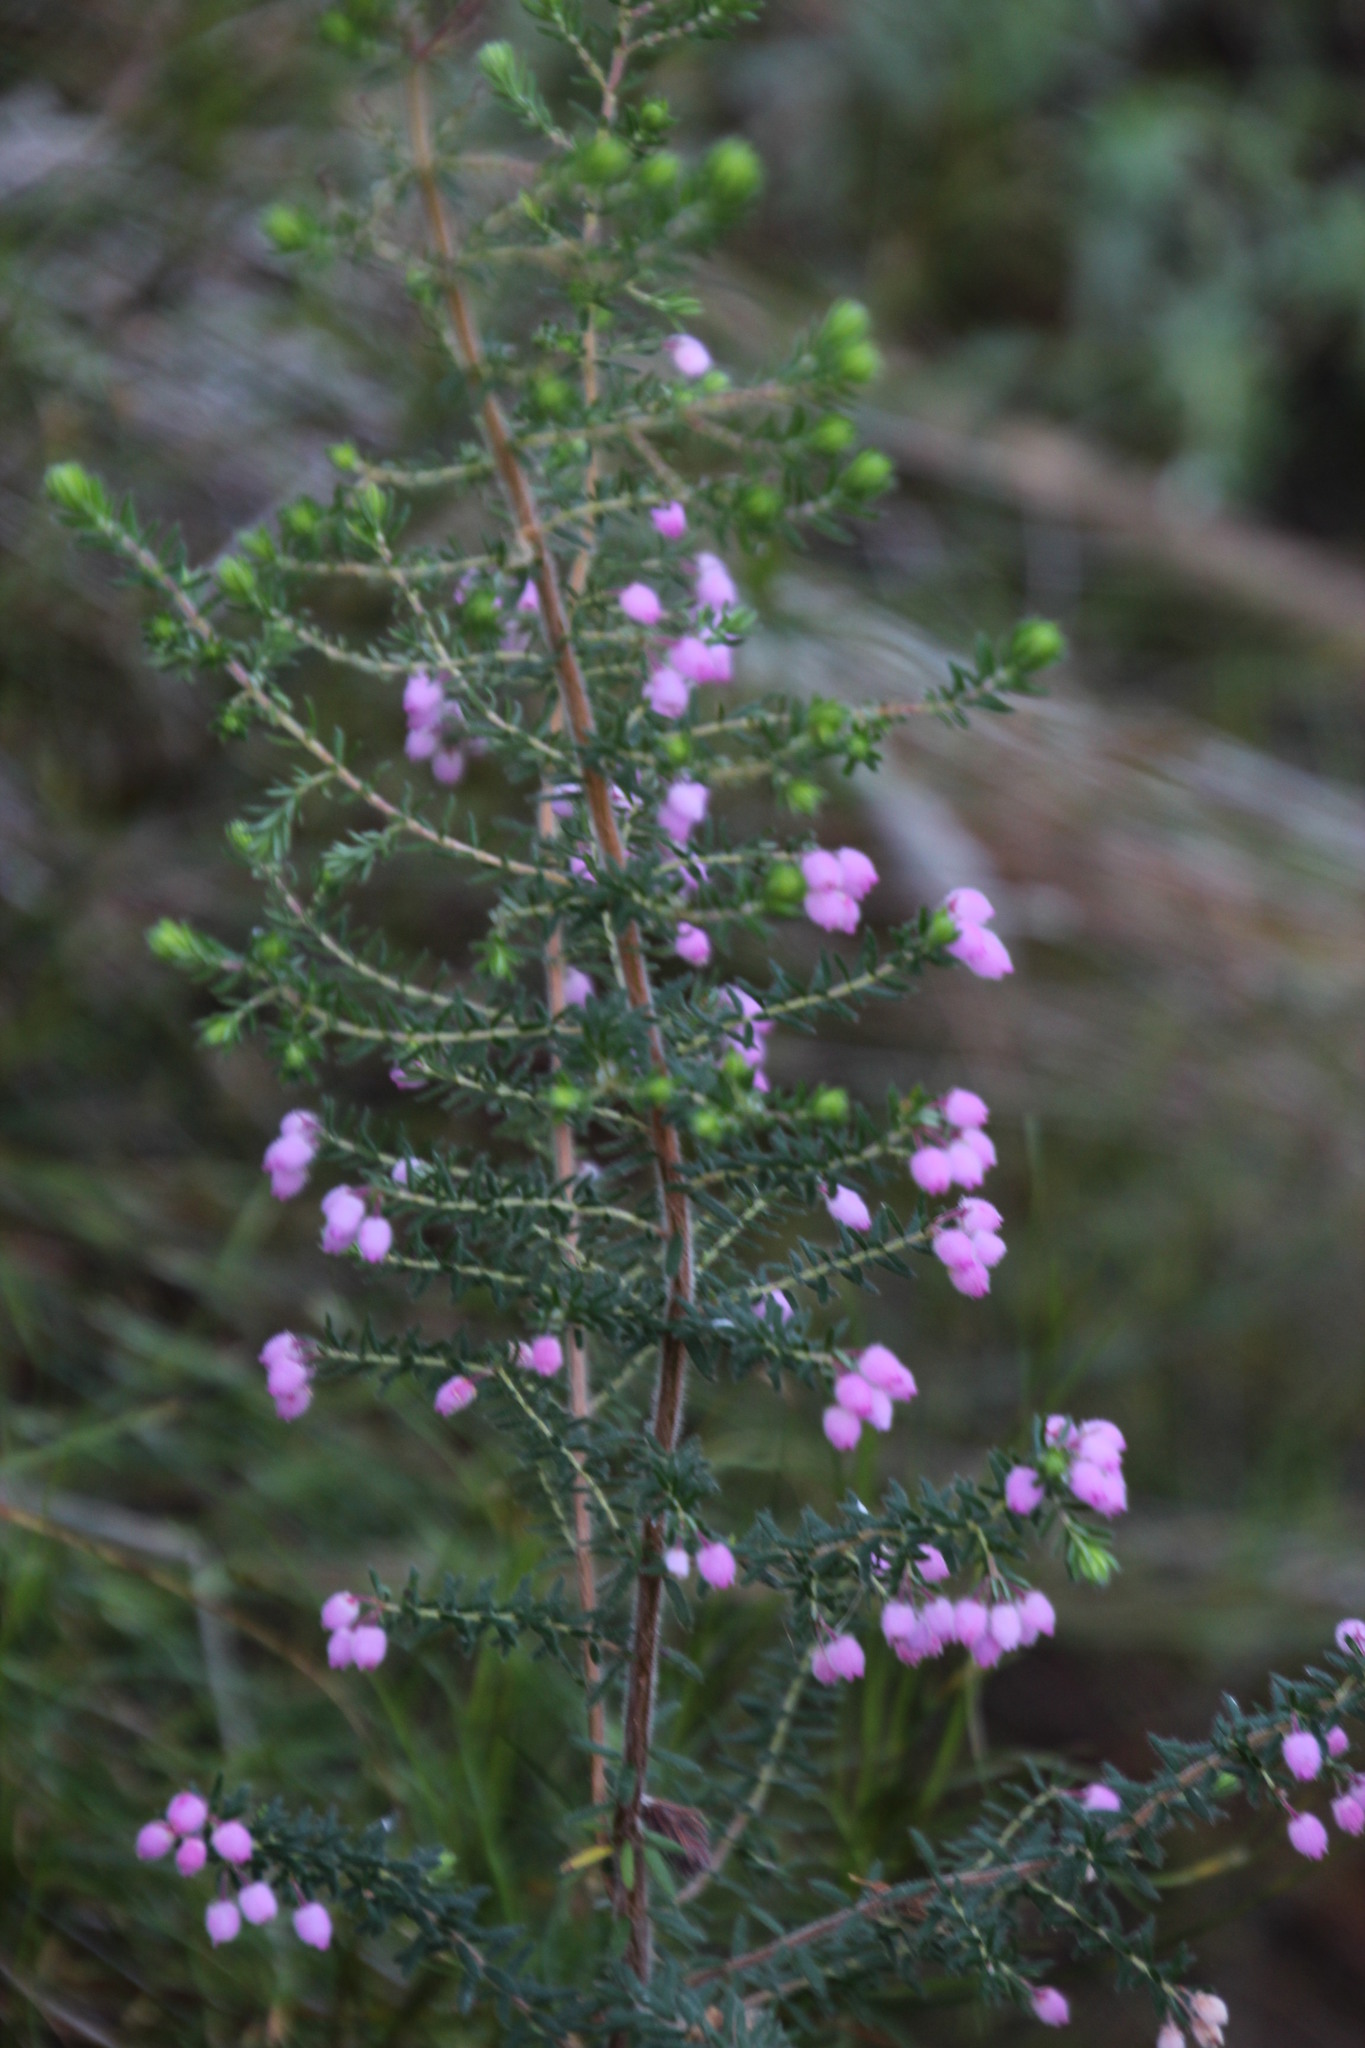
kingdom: Plantae
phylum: Tracheophyta
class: Magnoliopsida
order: Ericales
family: Ericaceae
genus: Erica
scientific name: Erica hirtiflora
